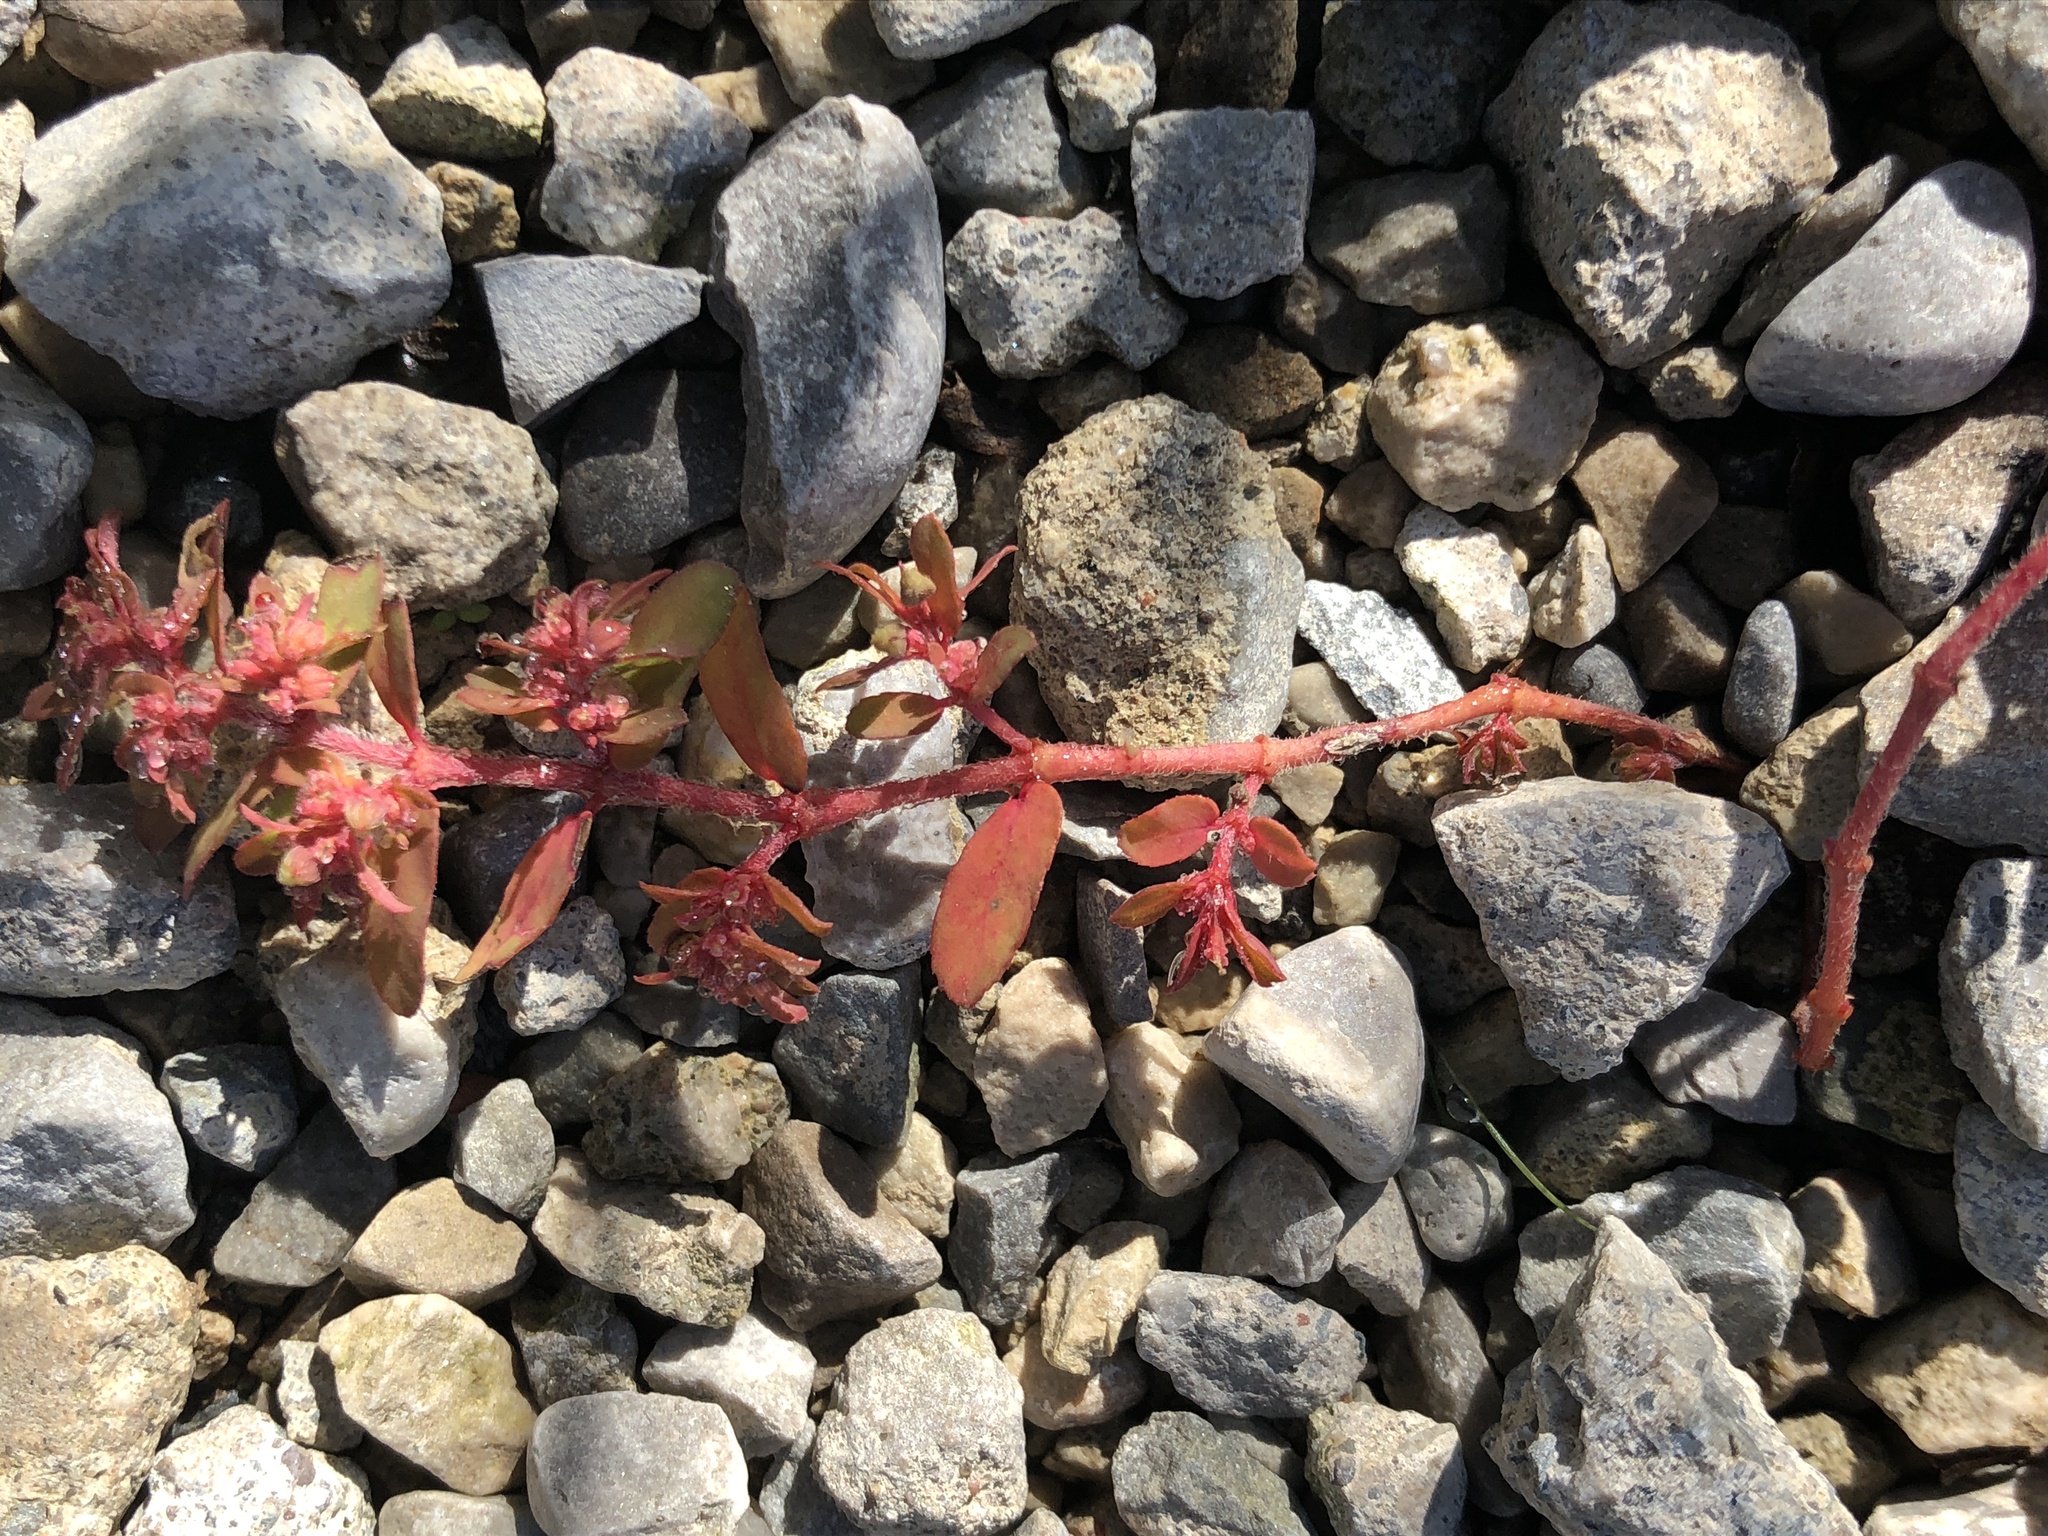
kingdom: Plantae
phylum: Tracheophyta
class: Magnoliopsida
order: Malpighiales
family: Euphorbiaceae
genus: Euphorbia
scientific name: Euphorbia maculata
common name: Spotted spurge
